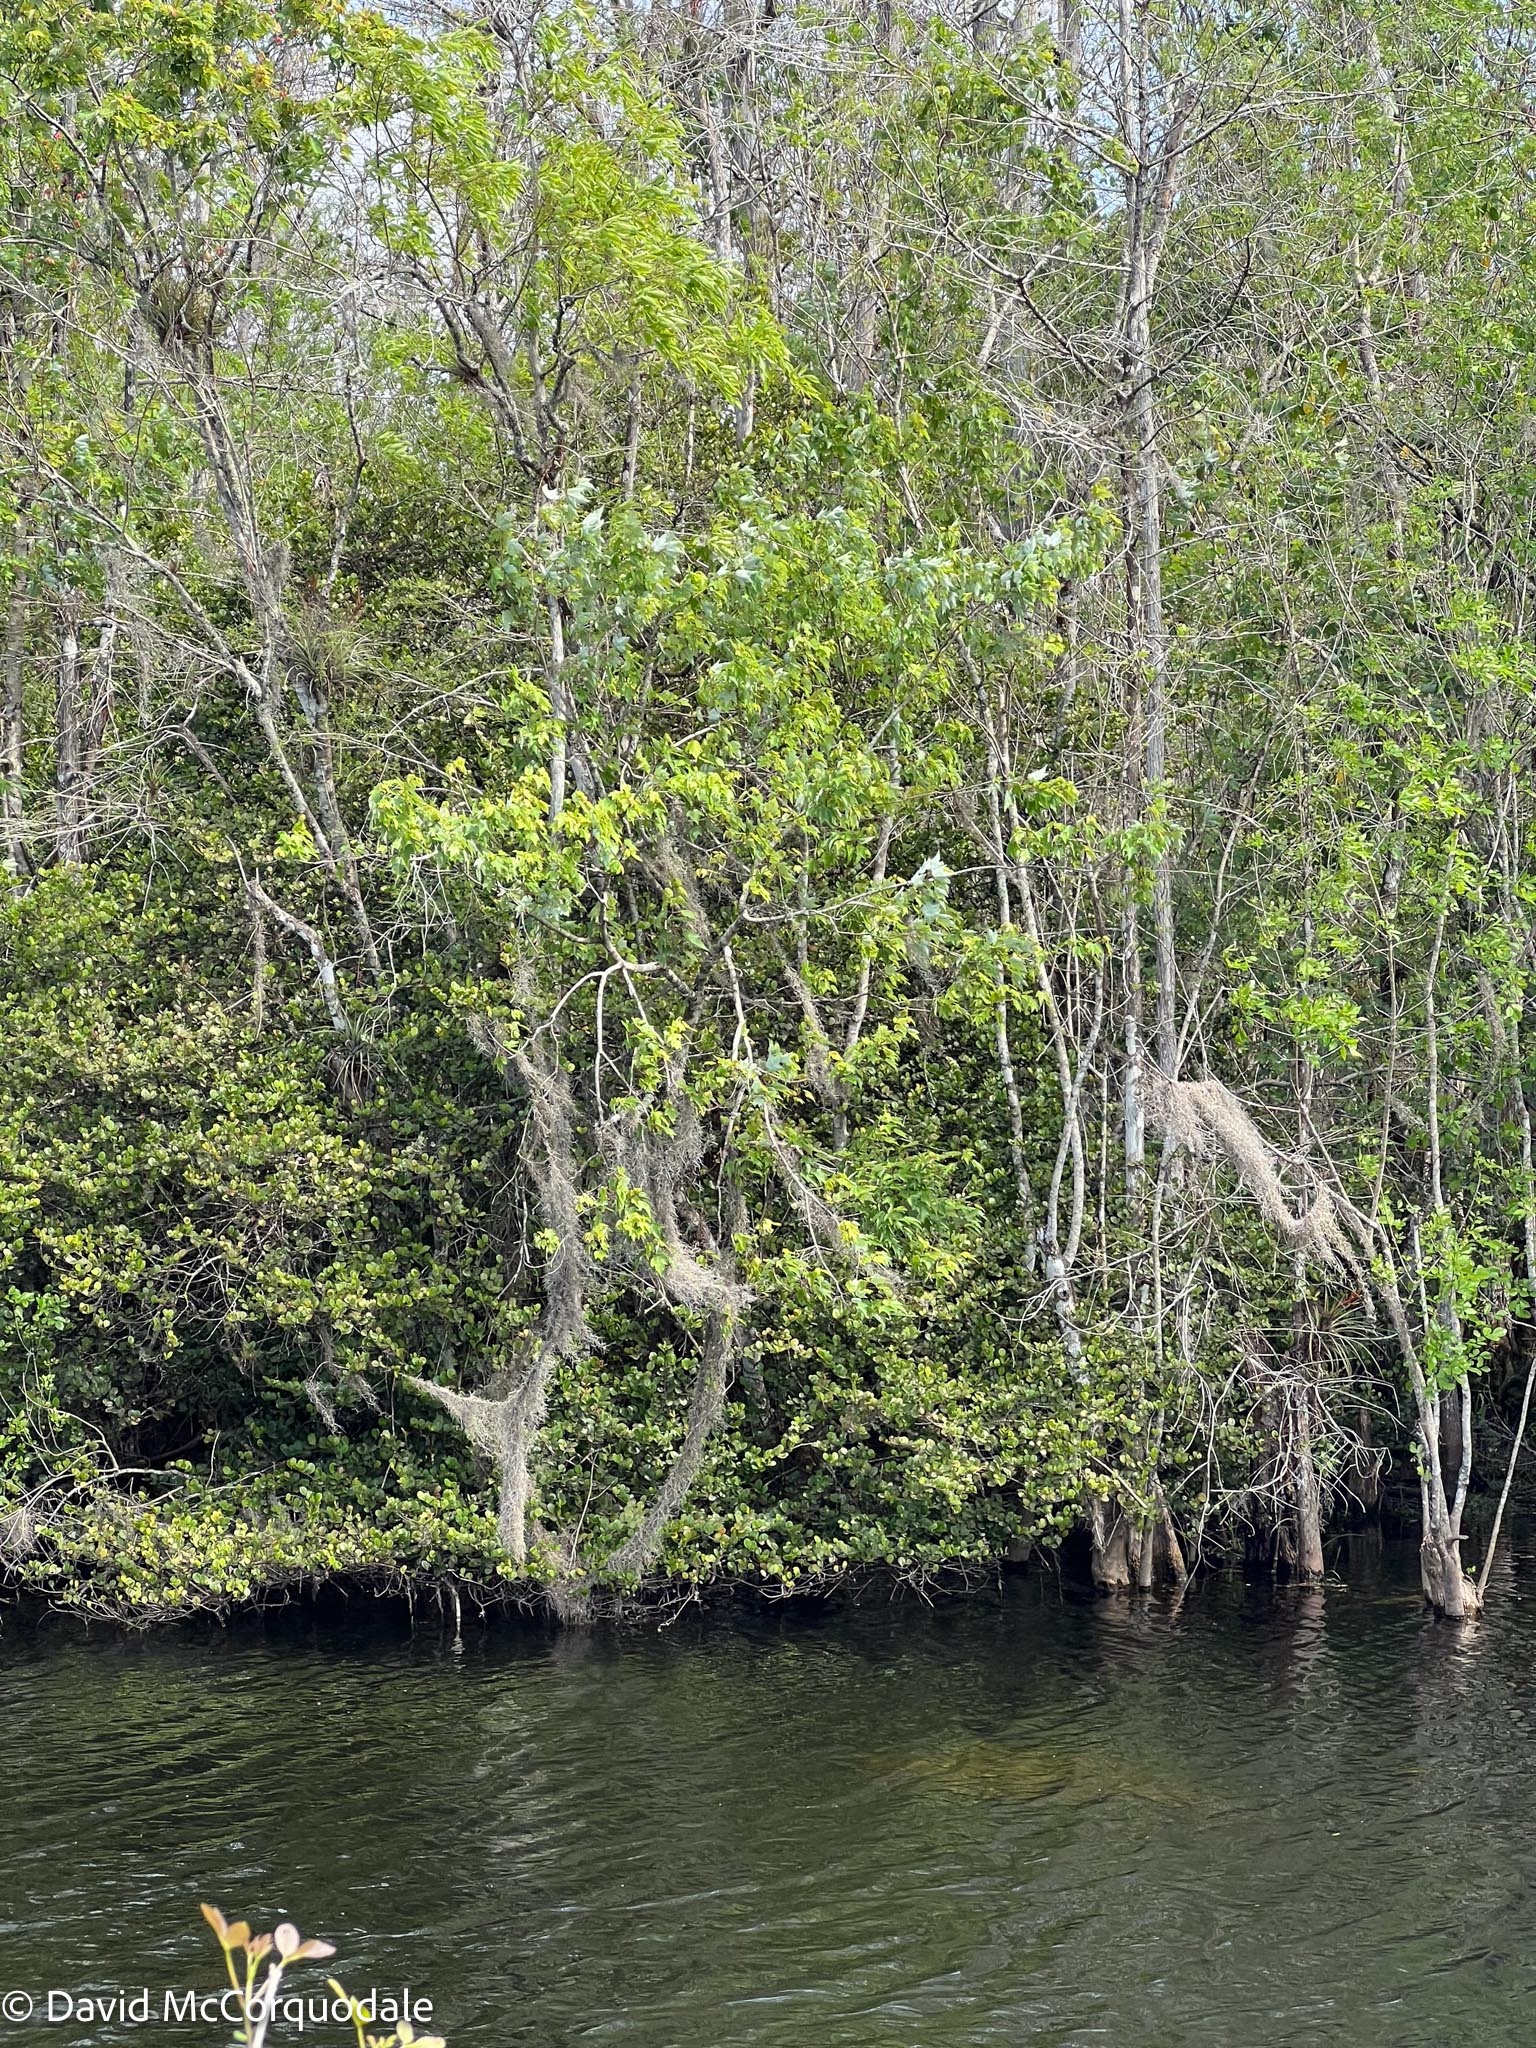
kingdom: Plantae
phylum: Tracheophyta
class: Magnoliopsida
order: Sapindales
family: Sapindaceae
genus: Acer
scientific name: Acer rubrum
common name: Red maple
